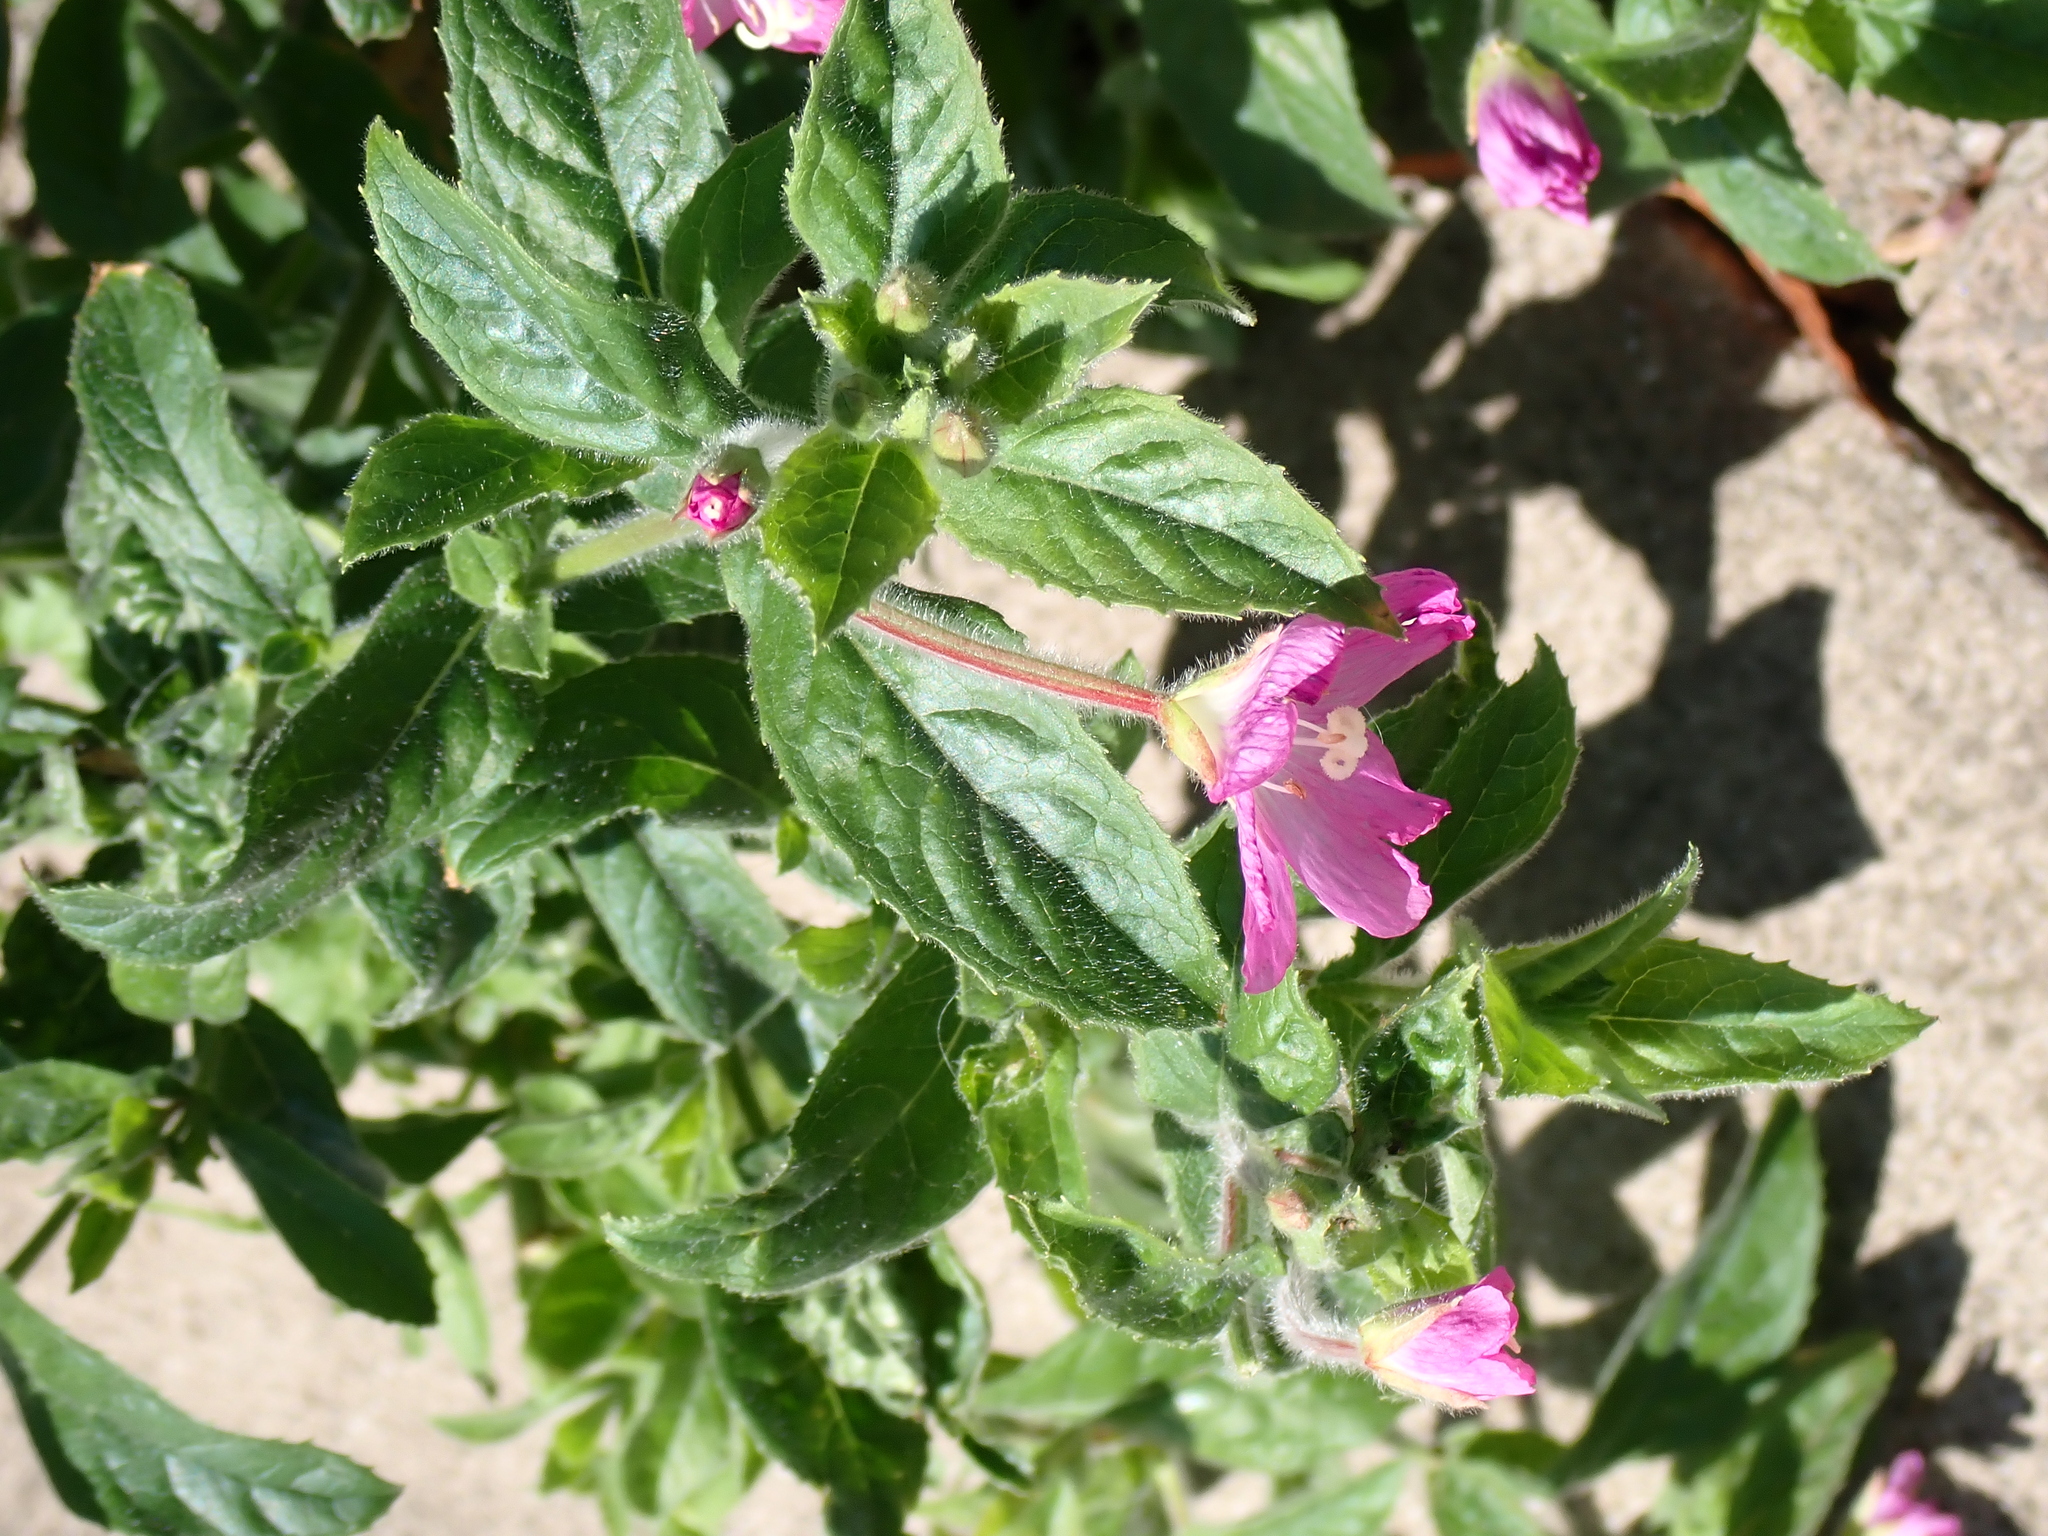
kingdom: Plantae
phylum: Tracheophyta
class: Magnoliopsida
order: Myrtales
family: Onagraceae
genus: Epilobium
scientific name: Epilobium hirsutum
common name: Great willowherb
